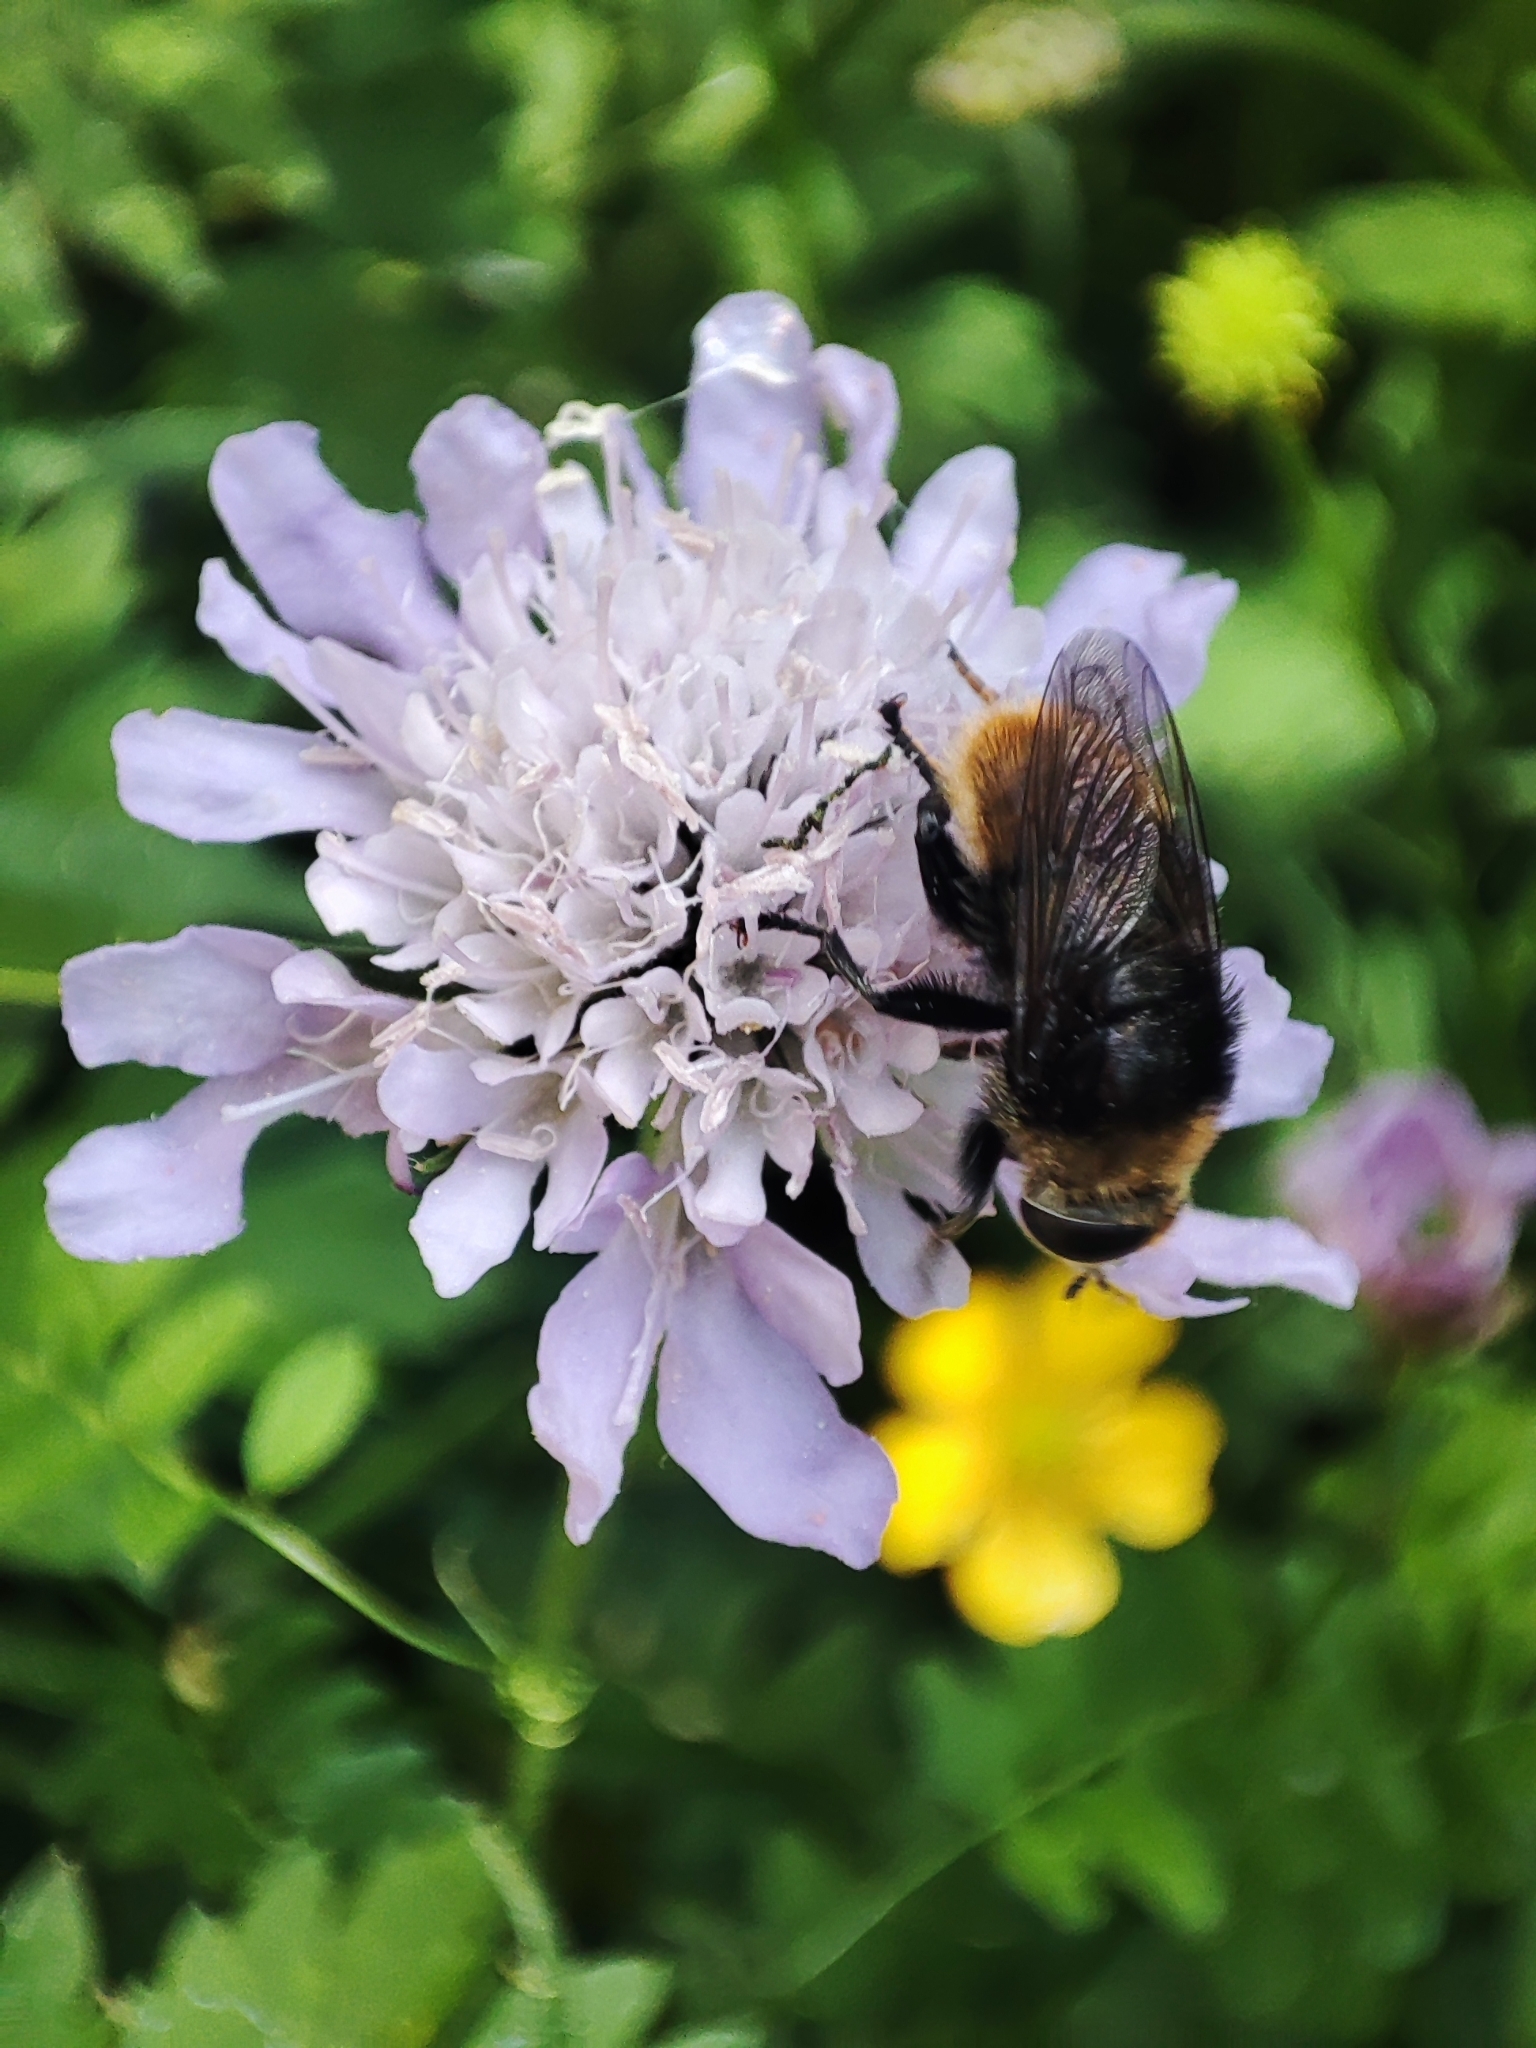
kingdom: Animalia
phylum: Arthropoda
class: Insecta
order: Diptera
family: Syrphidae
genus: Merodon
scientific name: Merodon equestris
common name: Greater bulb-fly
